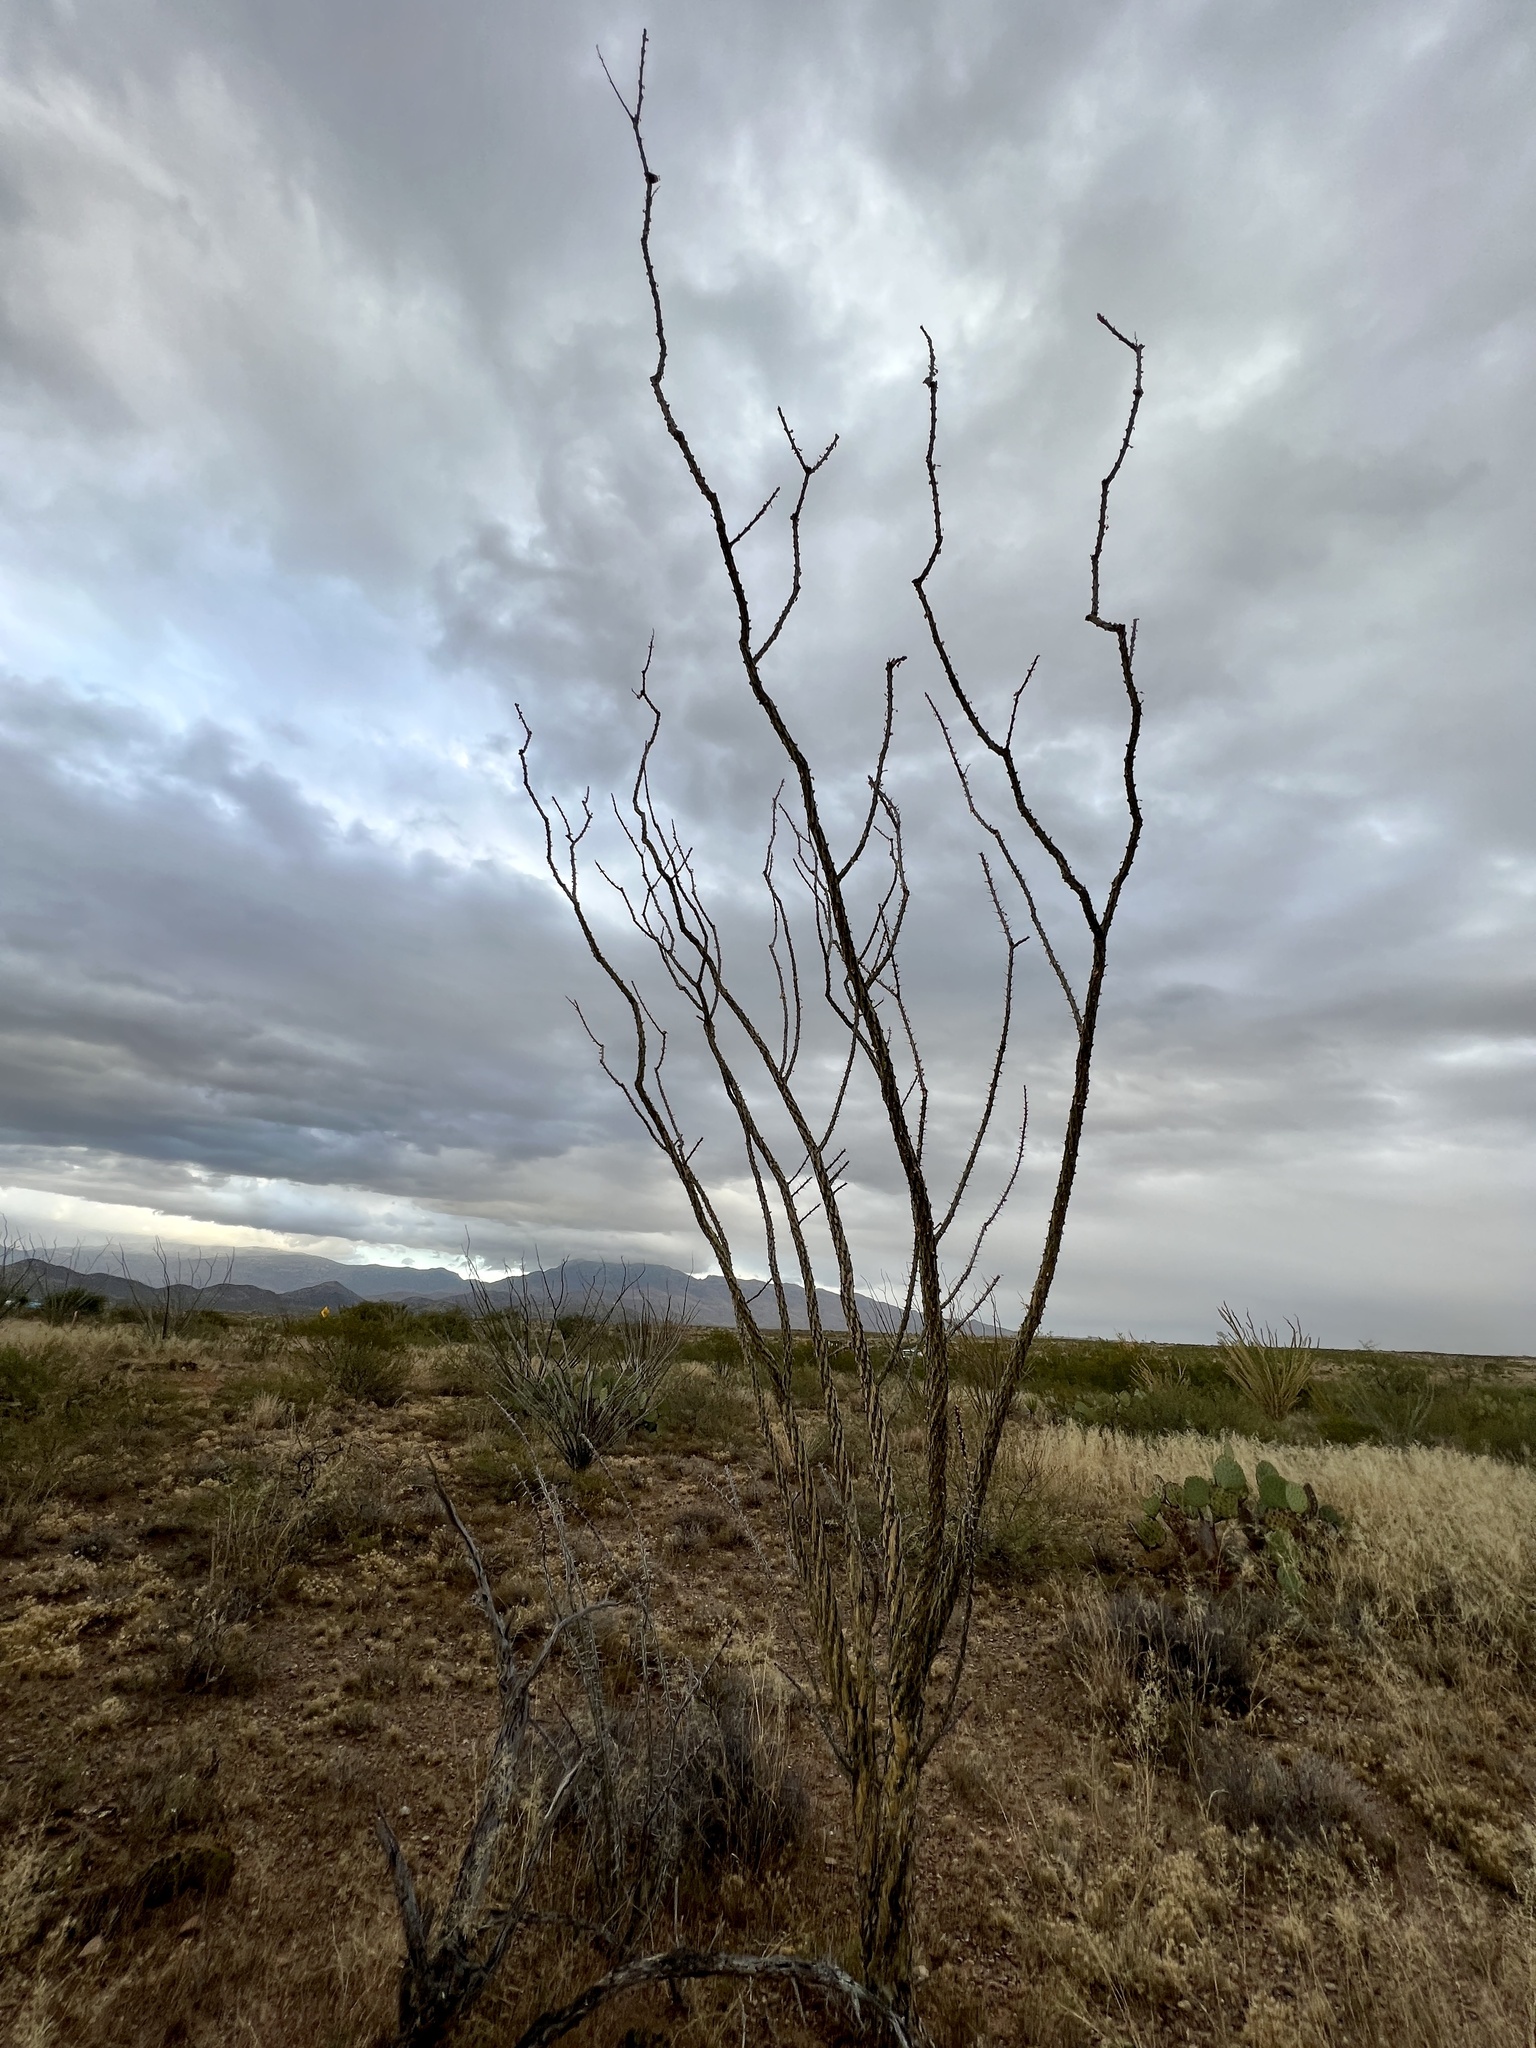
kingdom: Plantae
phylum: Tracheophyta
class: Magnoliopsida
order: Ericales
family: Fouquieriaceae
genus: Fouquieria
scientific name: Fouquieria splendens
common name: Vine-cactus
